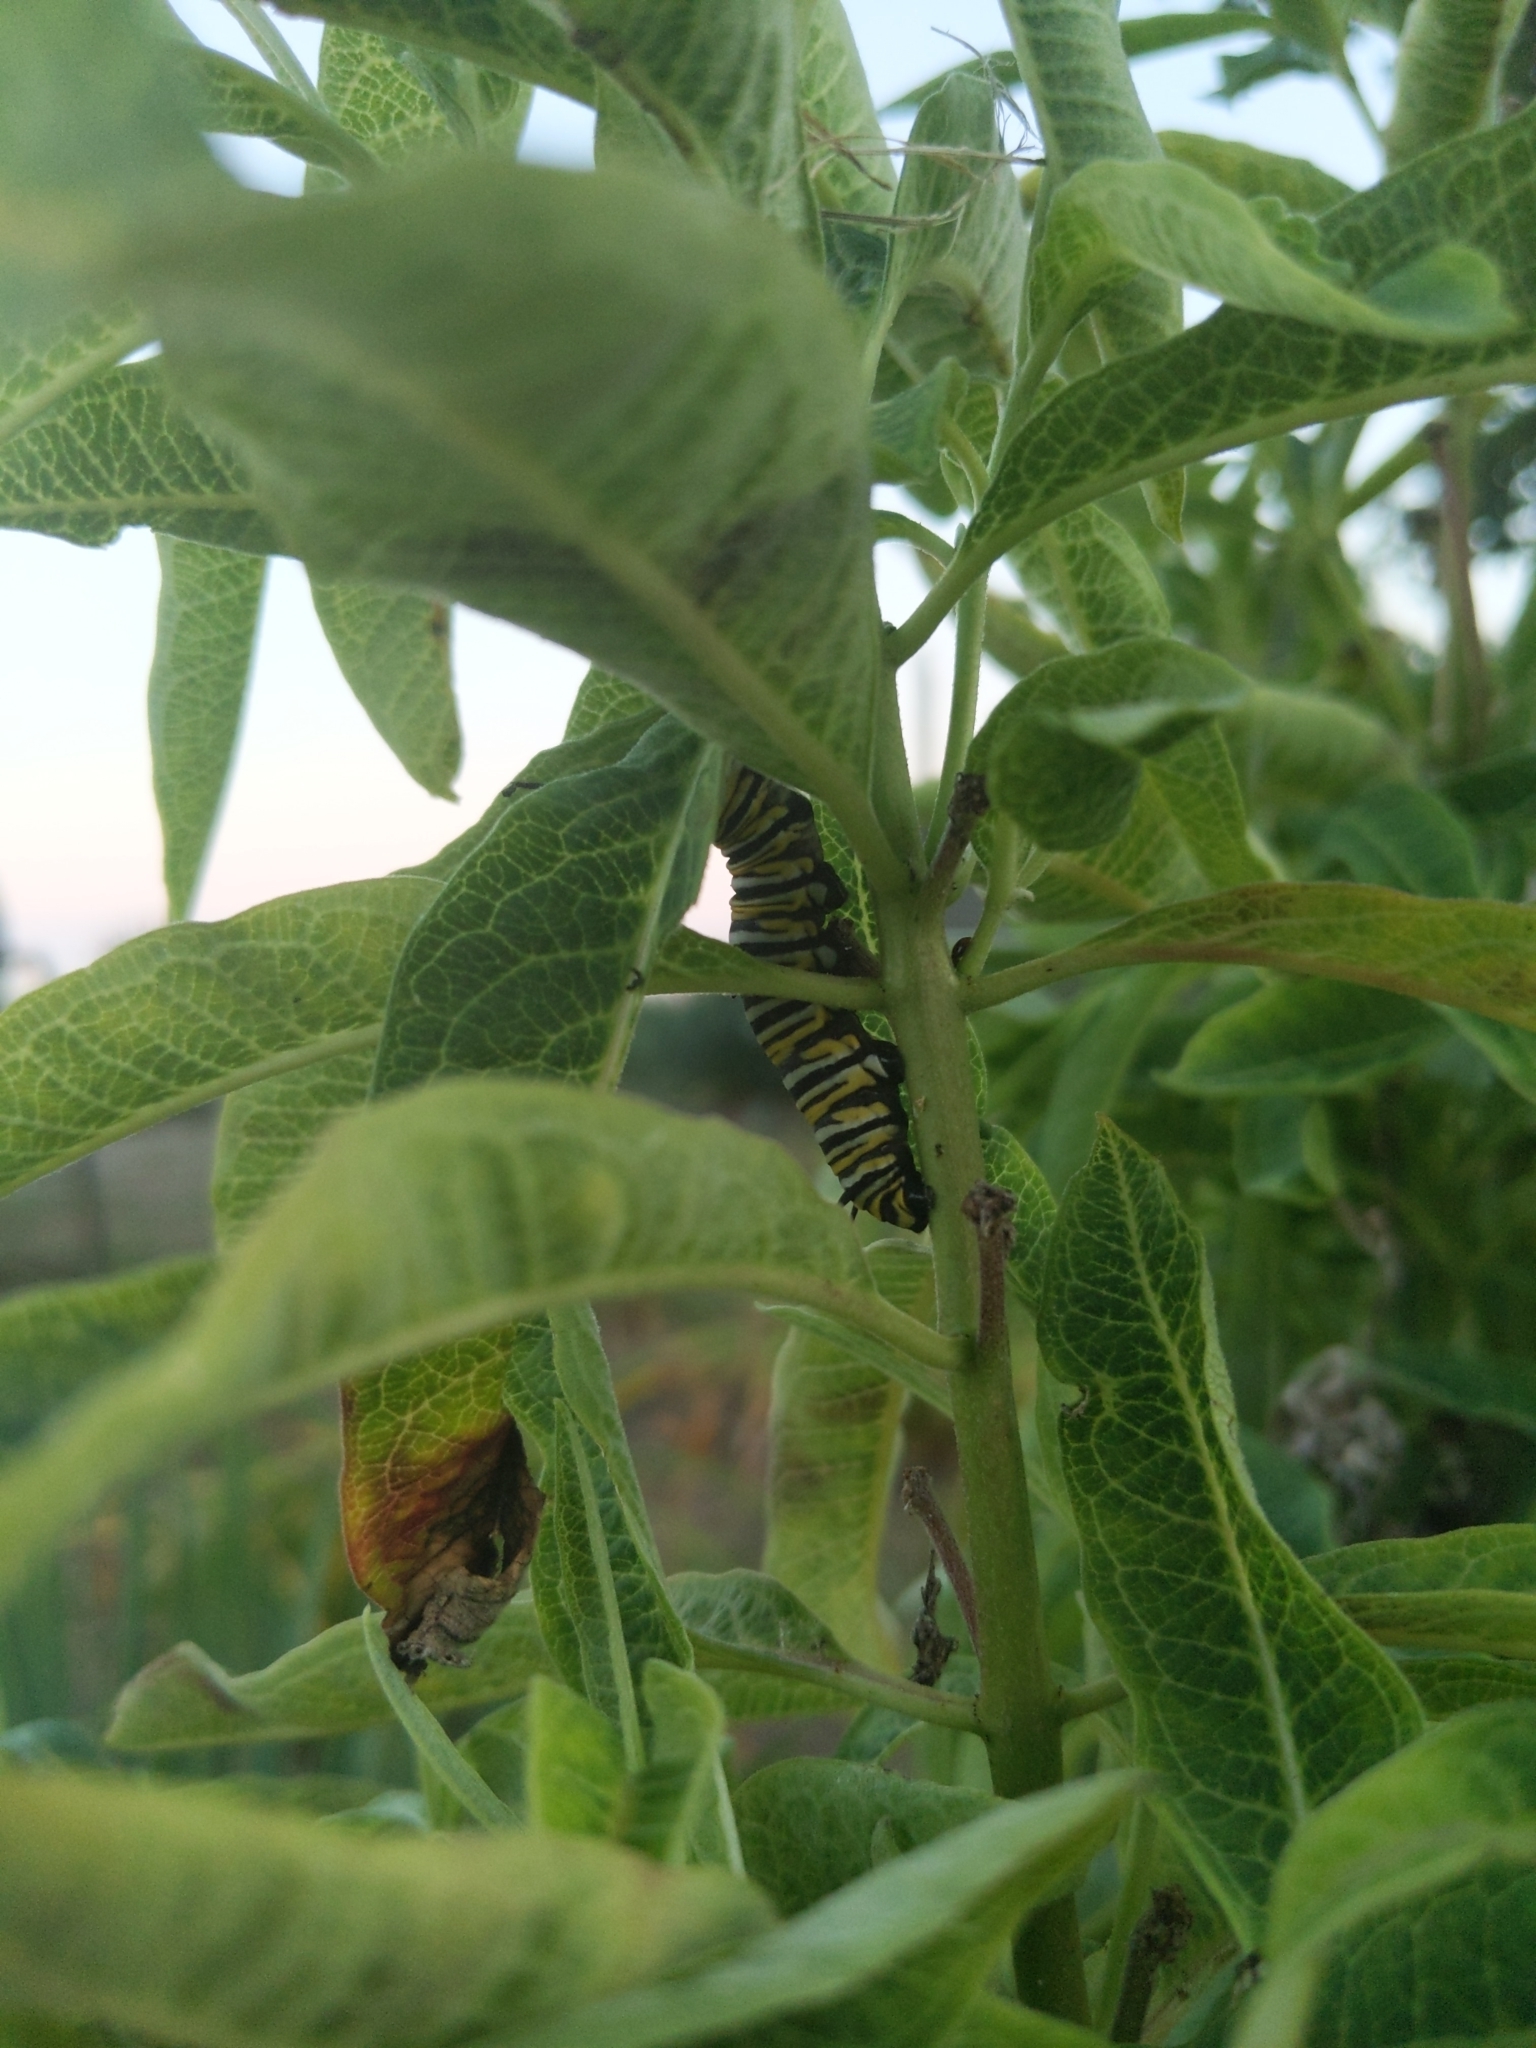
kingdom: Animalia
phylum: Arthropoda
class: Insecta
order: Lepidoptera
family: Nymphalidae
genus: Danaus
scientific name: Danaus plexippus
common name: Monarch
